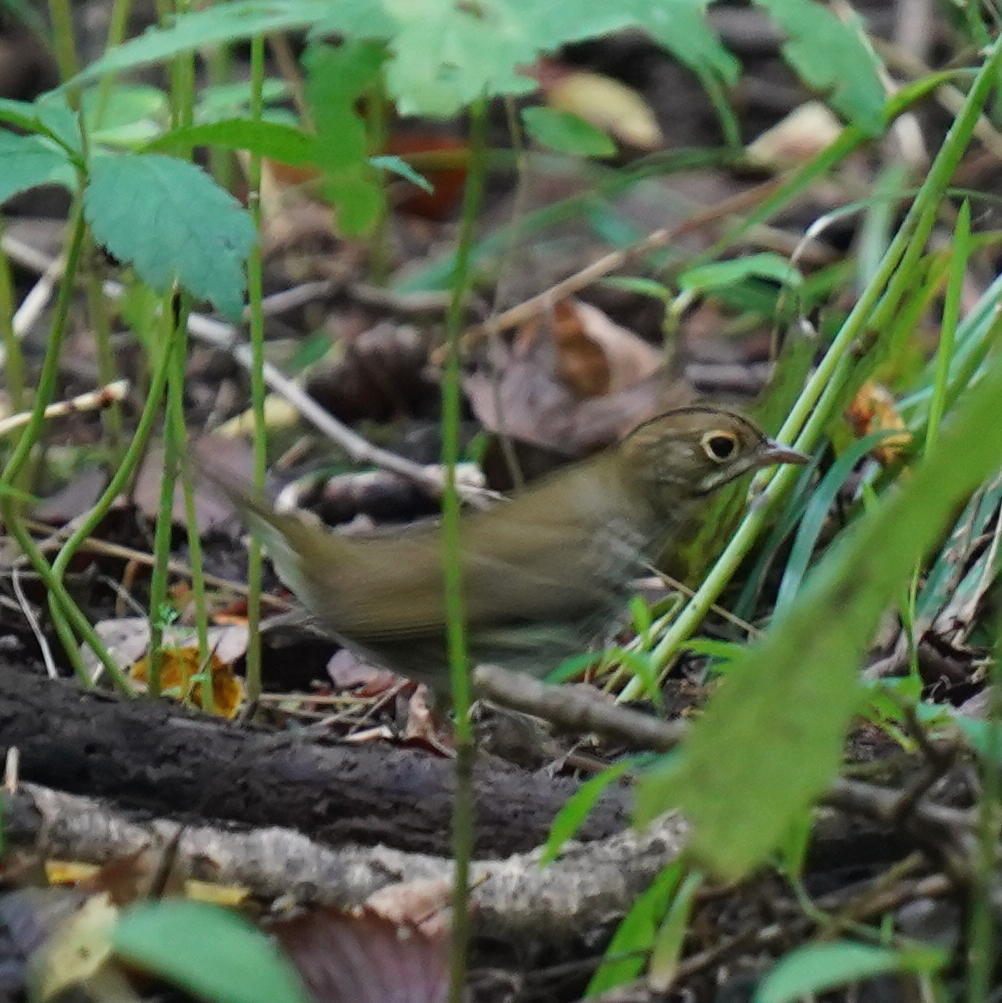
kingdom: Animalia
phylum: Chordata
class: Aves
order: Passeriformes
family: Parulidae
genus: Seiurus
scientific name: Seiurus aurocapilla
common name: Ovenbird
